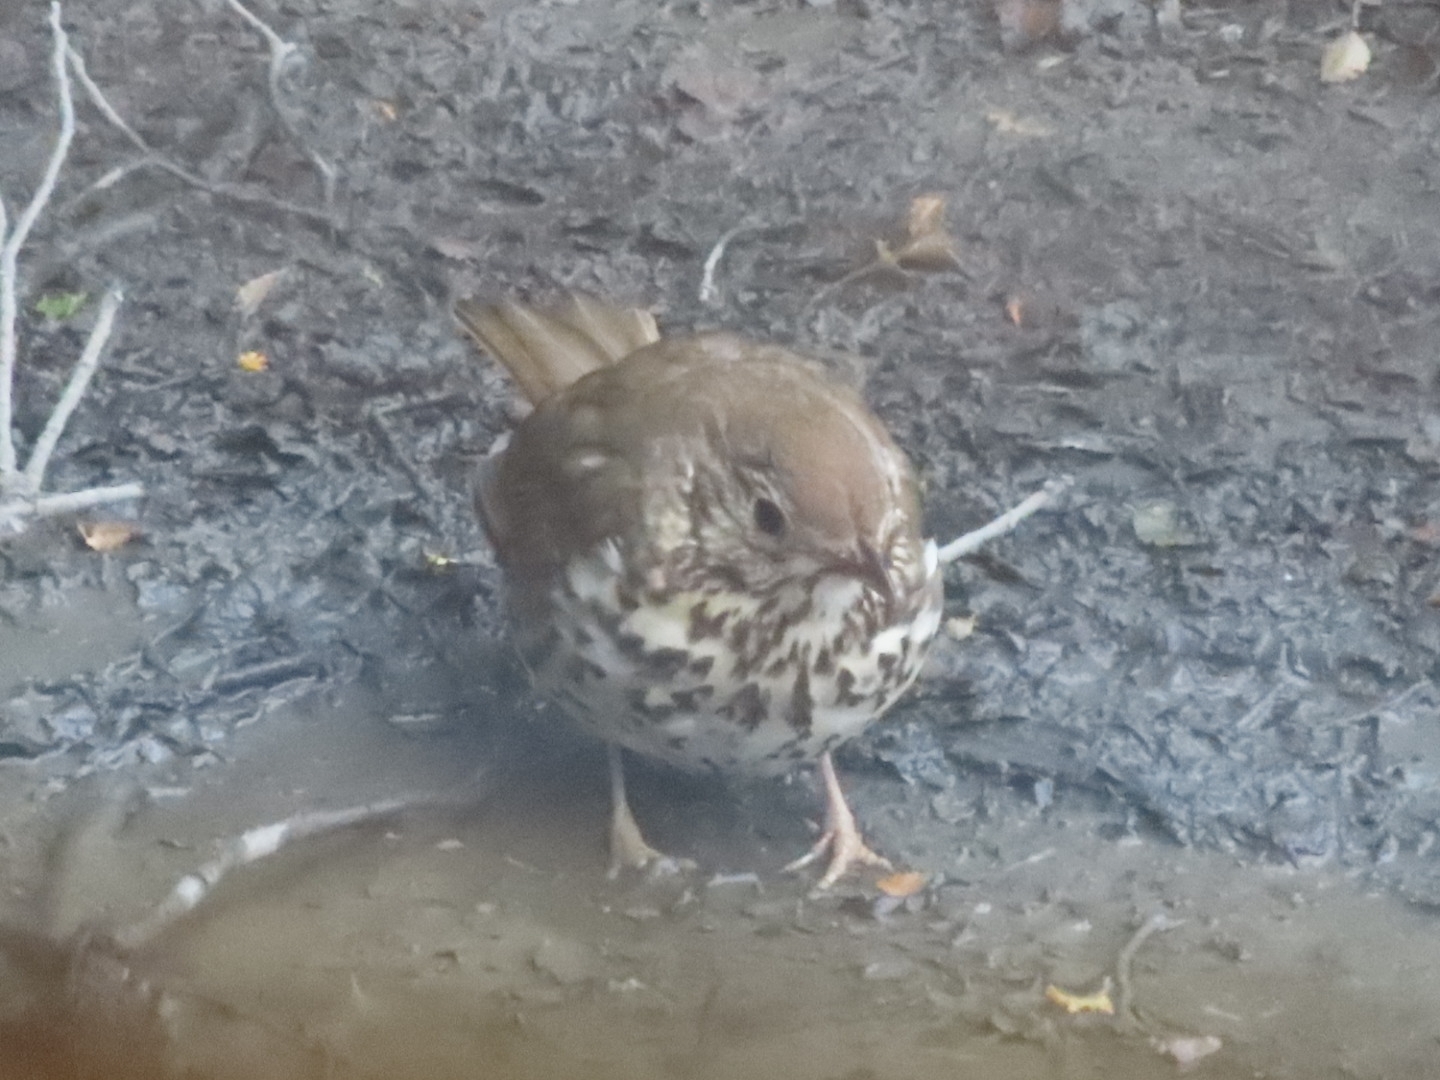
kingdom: Animalia
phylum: Chordata
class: Aves
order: Passeriformes
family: Turdidae
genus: Turdus
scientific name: Turdus philomelos
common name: Song thrush
